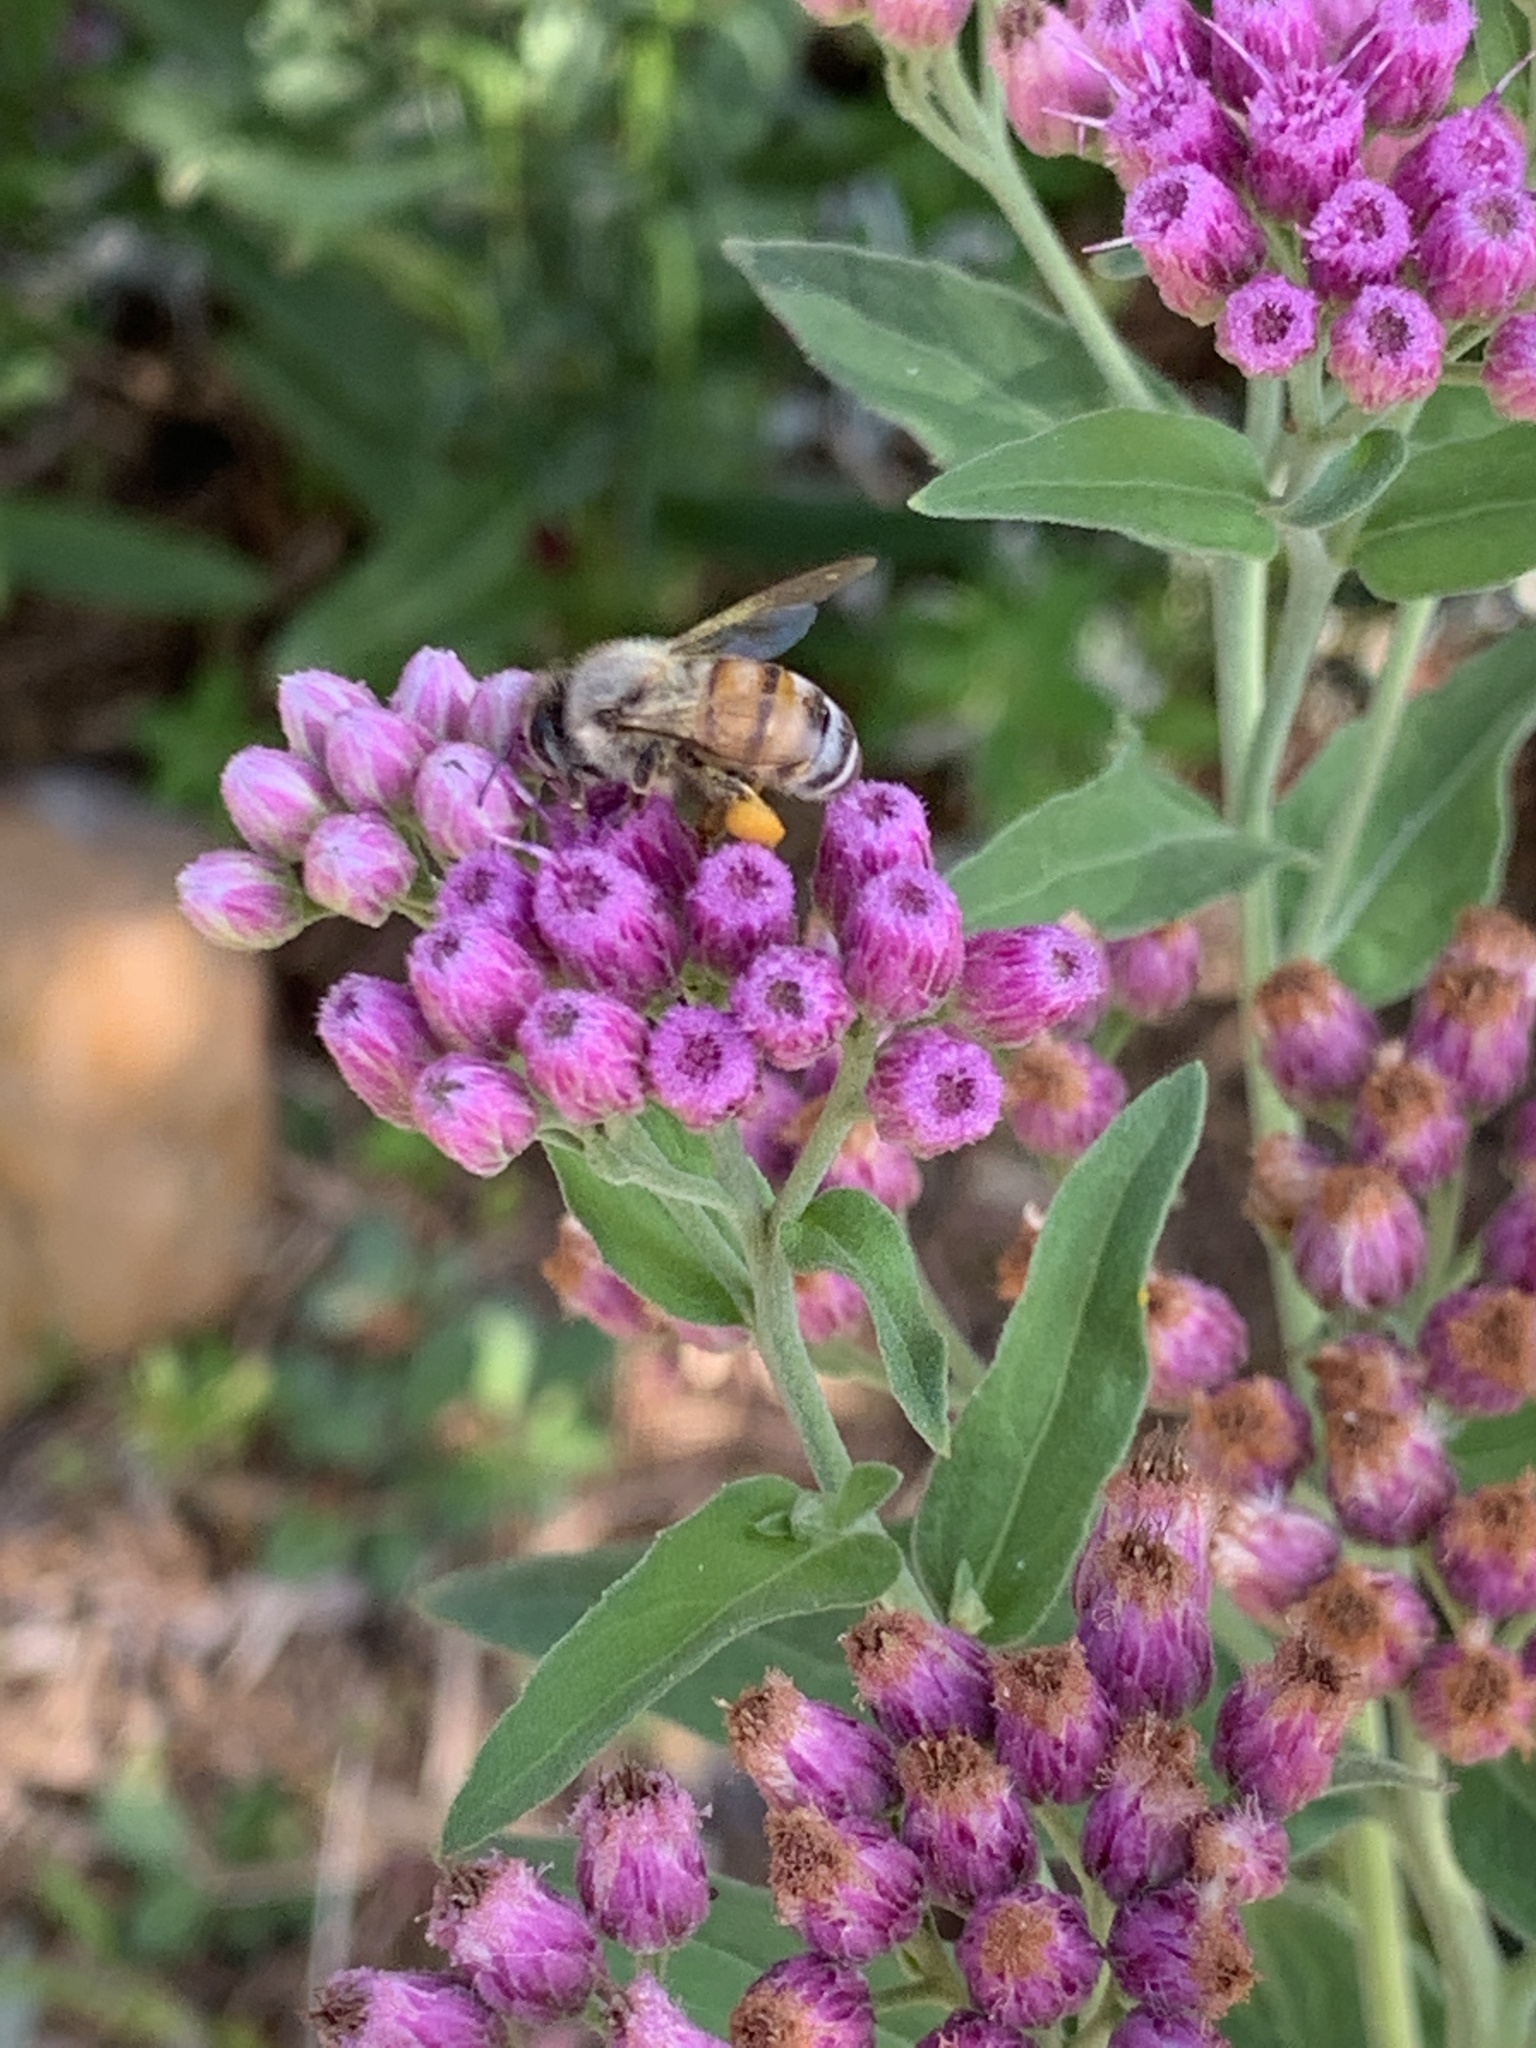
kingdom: Animalia
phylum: Arthropoda
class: Insecta
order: Hymenoptera
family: Apidae
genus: Apis
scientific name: Apis mellifera
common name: Honey bee
